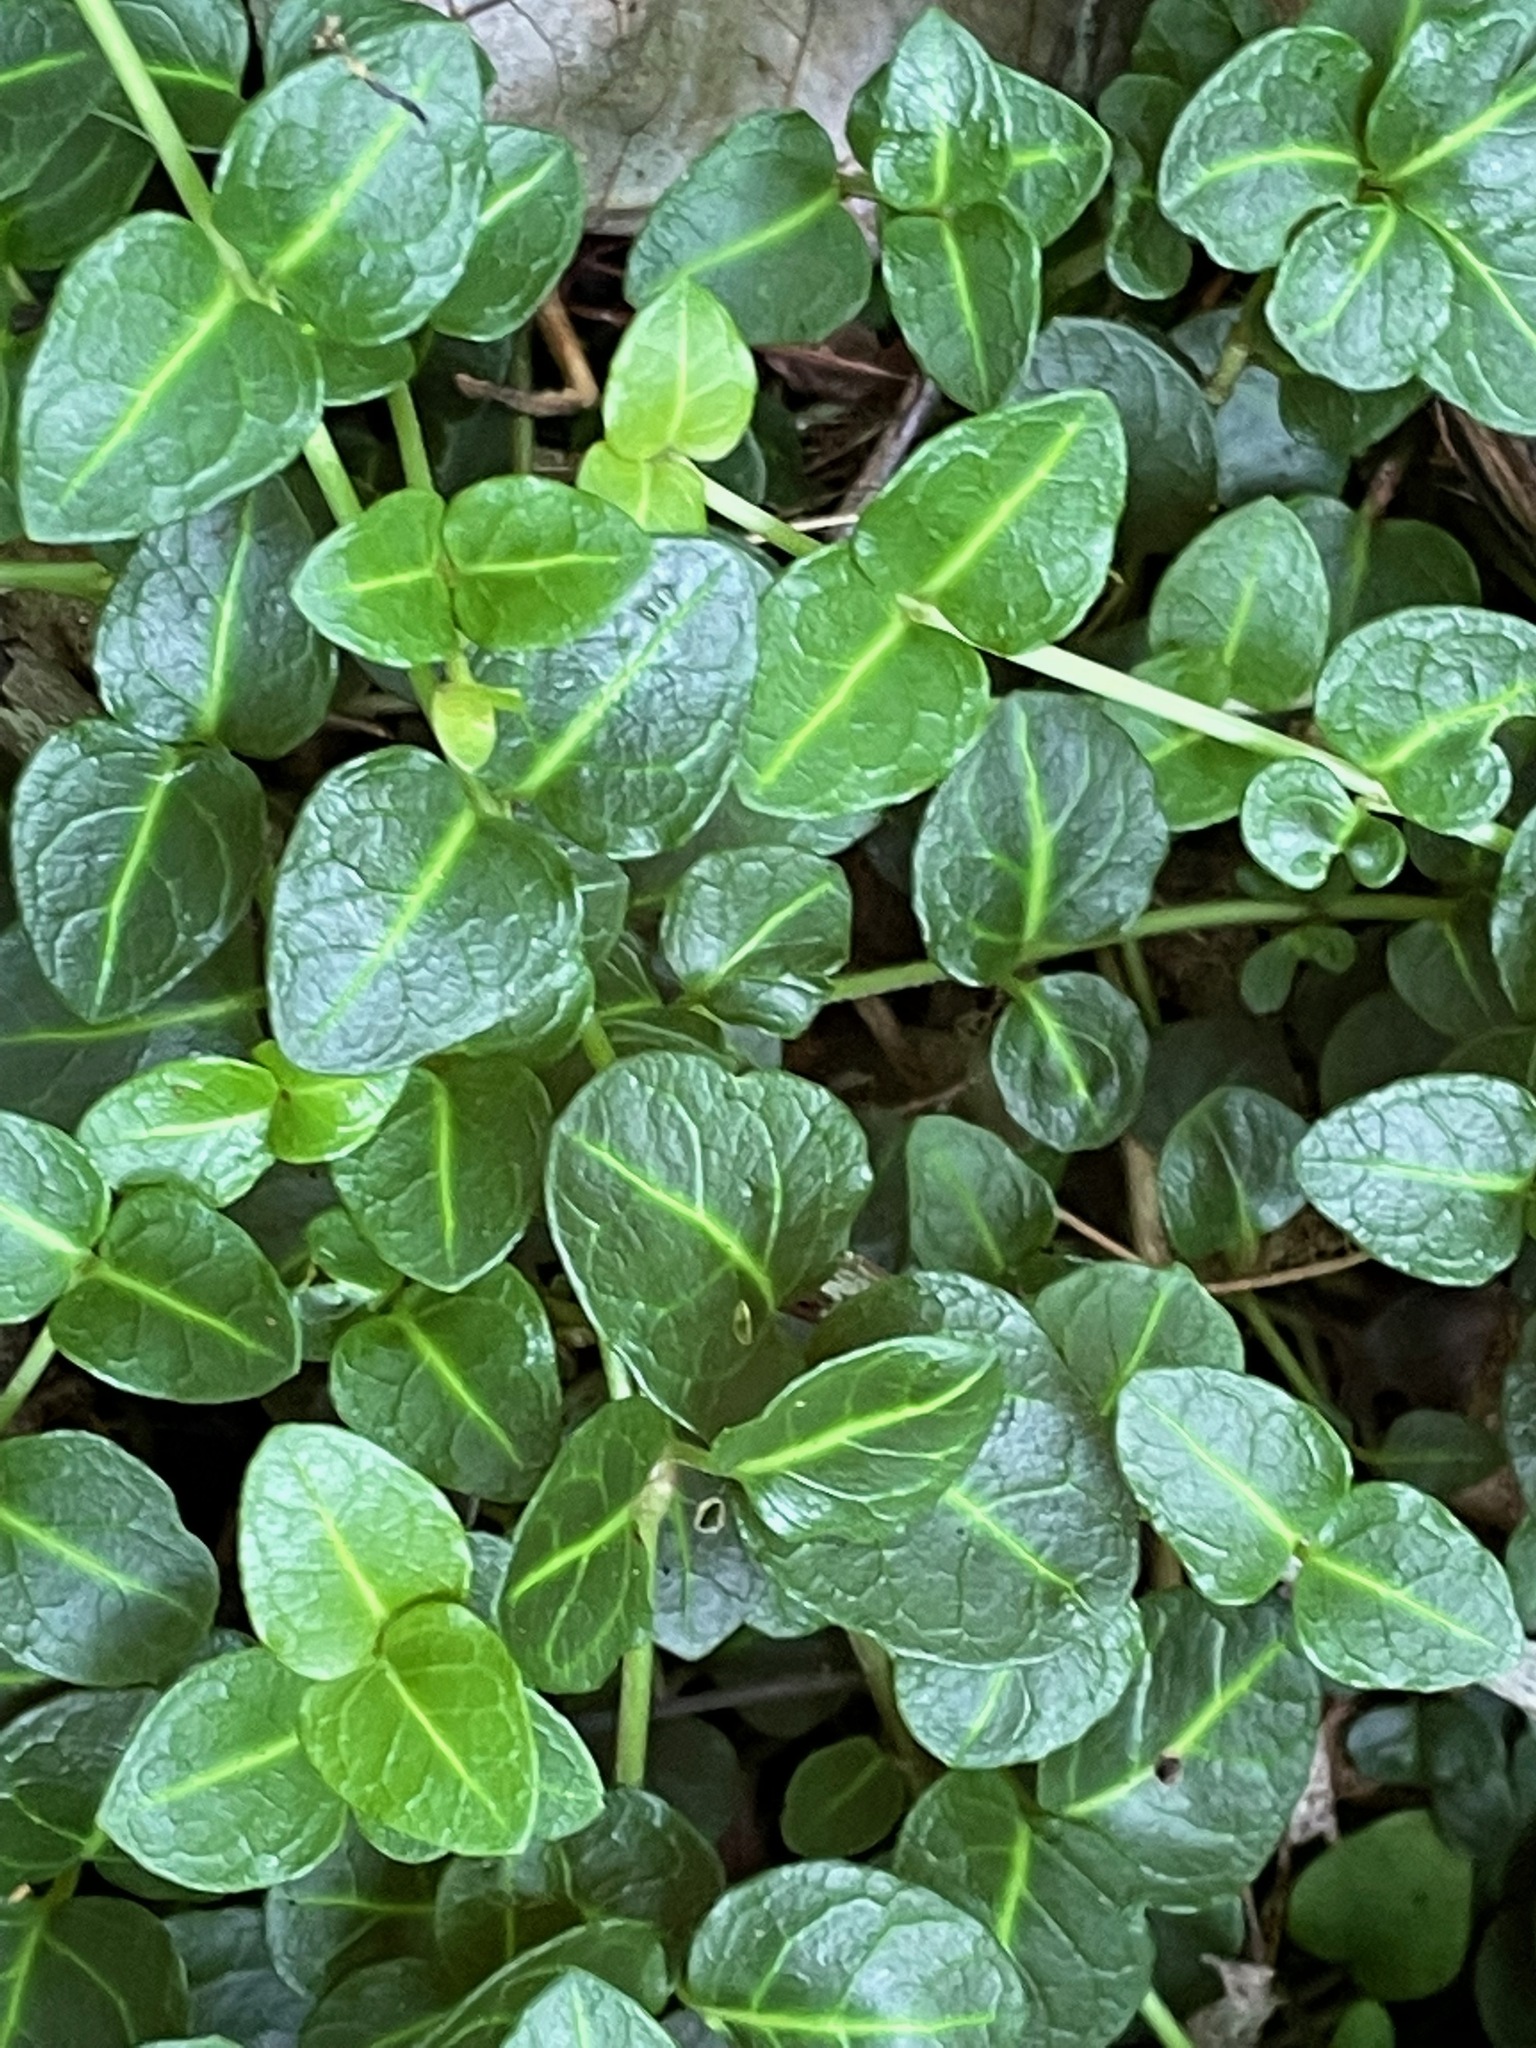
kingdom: Plantae
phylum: Tracheophyta
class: Magnoliopsida
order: Gentianales
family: Rubiaceae
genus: Mitchella
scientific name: Mitchella repens
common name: Partridge-berry
